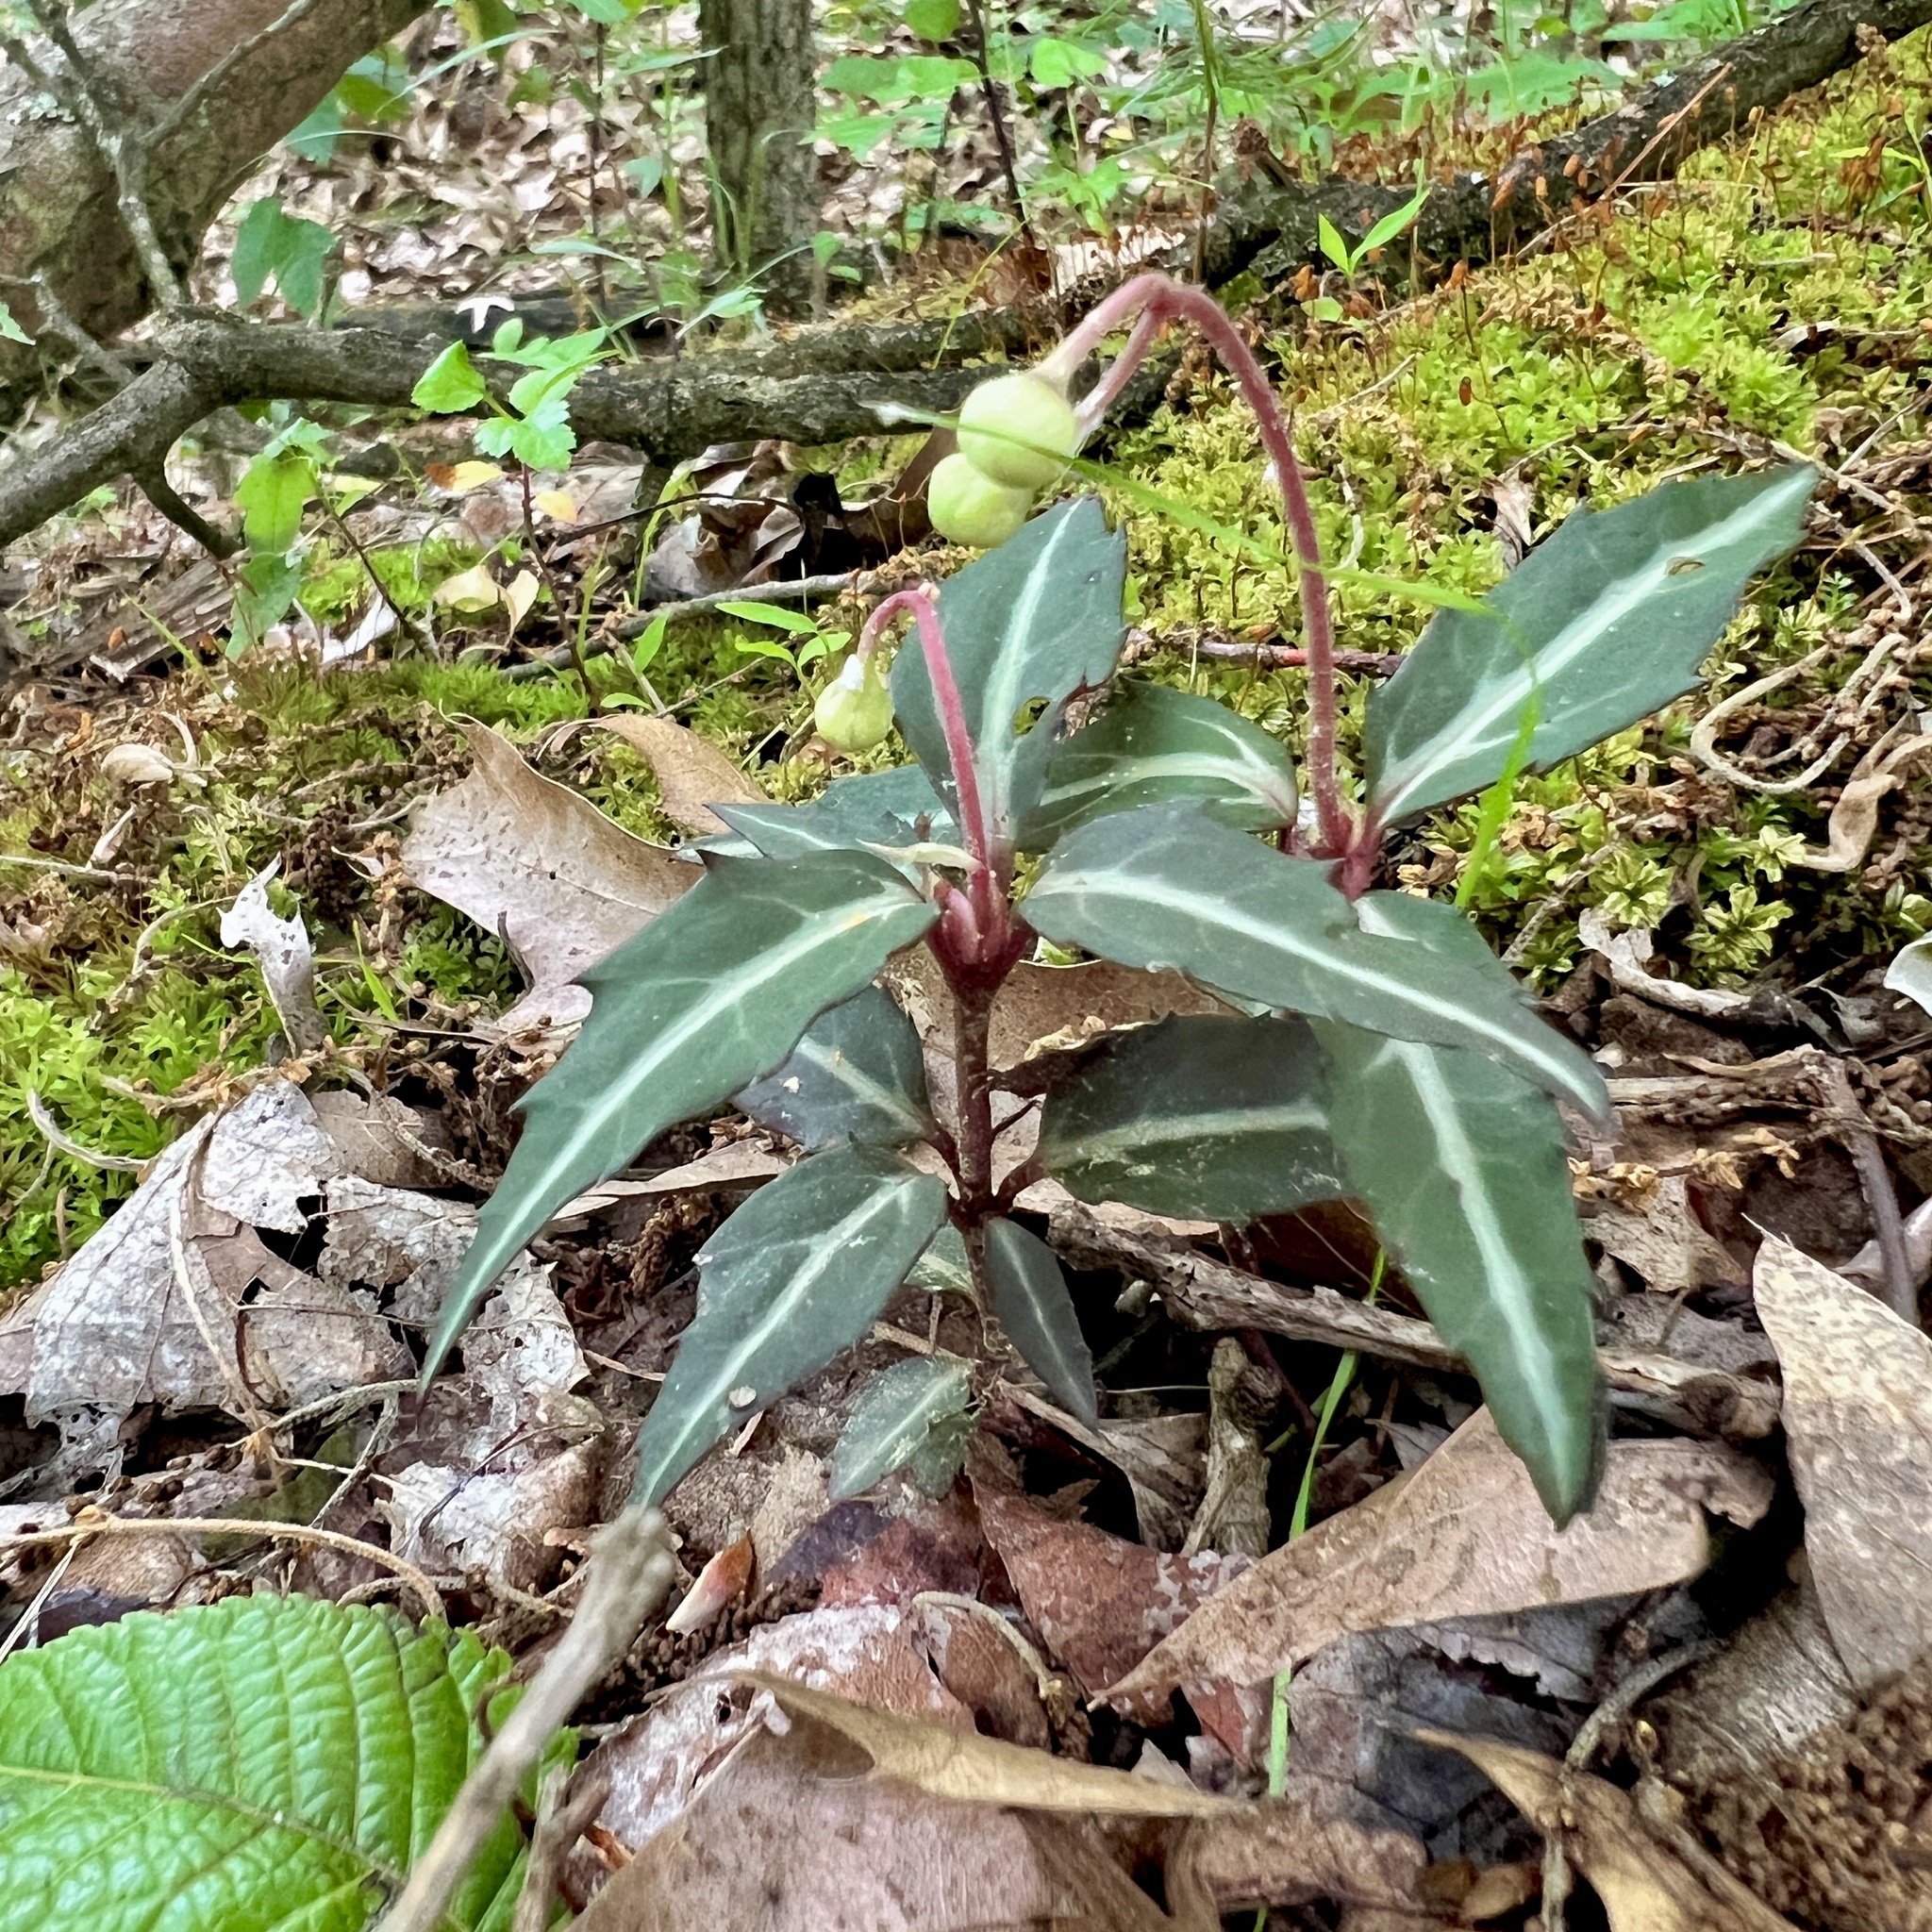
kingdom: Plantae
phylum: Tracheophyta
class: Magnoliopsida
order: Ericales
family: Ericaceae
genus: Chimaphila
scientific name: Chimaphila maculata
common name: Spotted pipsissewa
